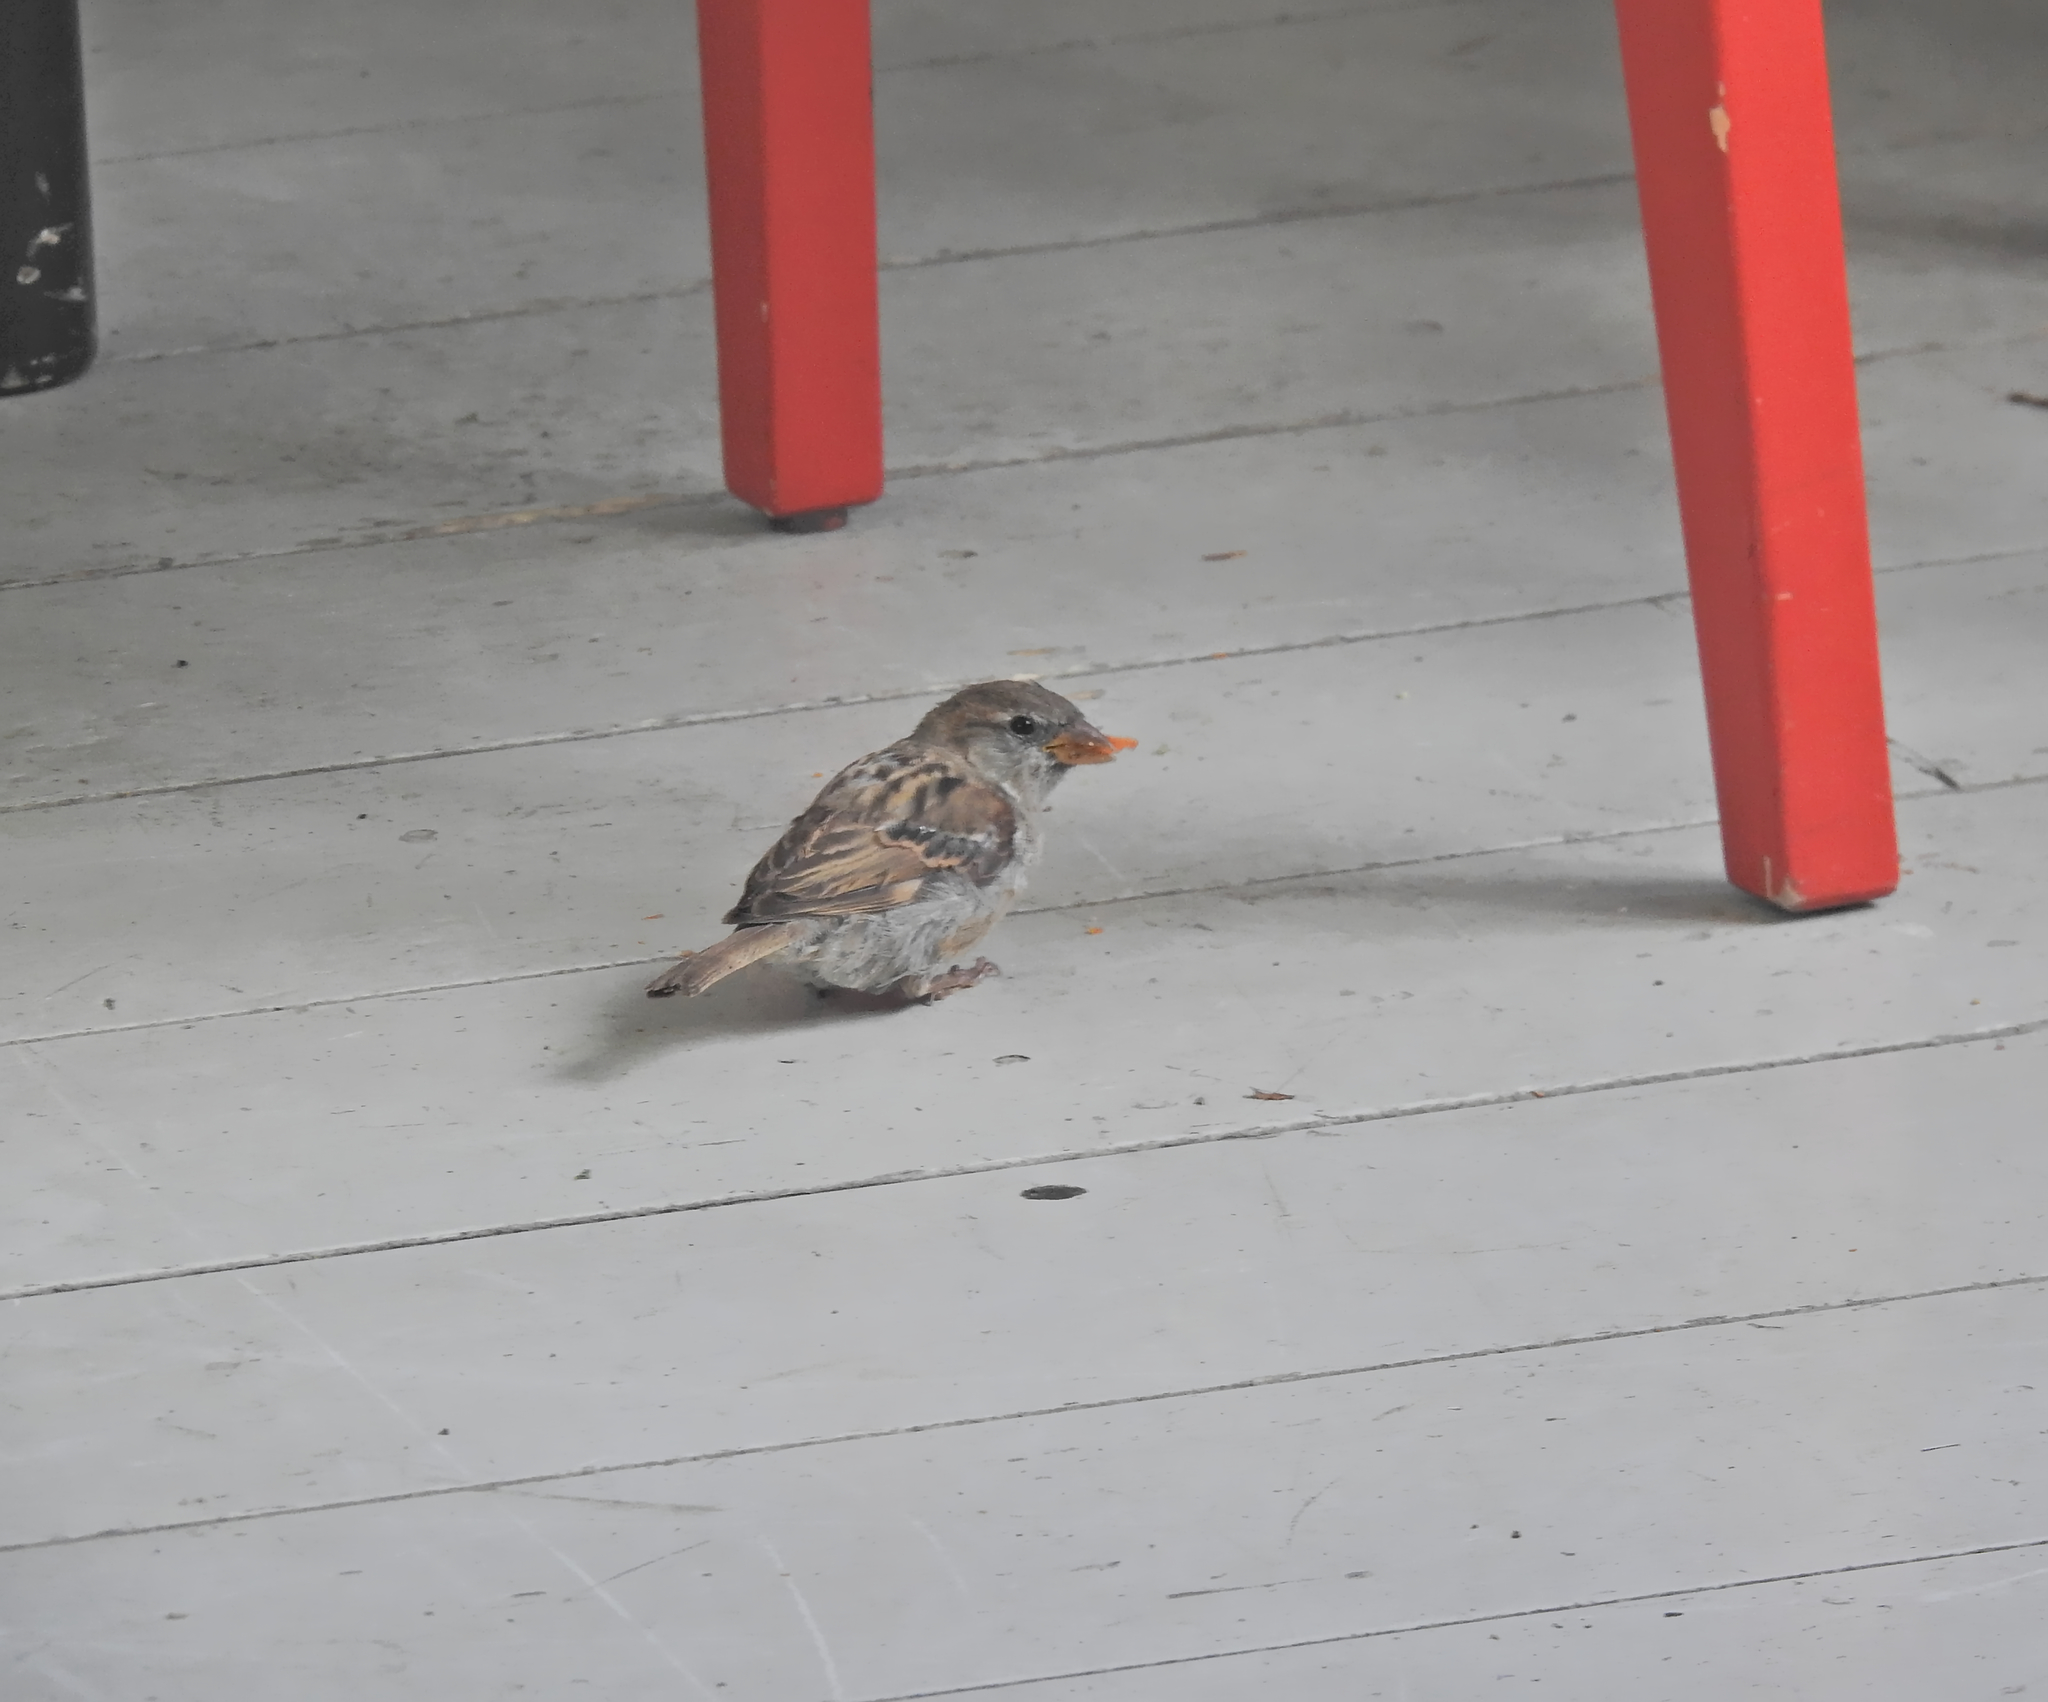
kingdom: Animalia
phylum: Chordata
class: Aves
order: Passeriformes
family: Passeridae
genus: Passer
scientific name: Passer domesticus
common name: House sparrow
